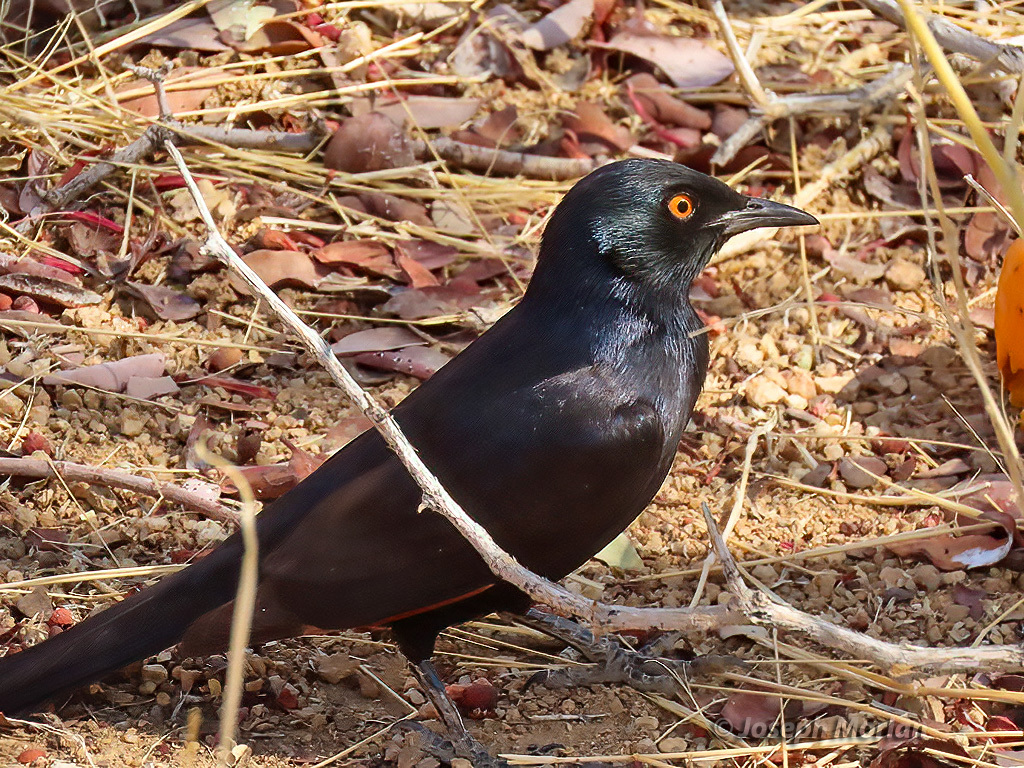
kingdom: Animalia
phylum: Chordata
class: Aves
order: Passeriformes
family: Sturnidae
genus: Onychognathus
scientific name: Onychognathus nabouroup
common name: Pale-winged starling
